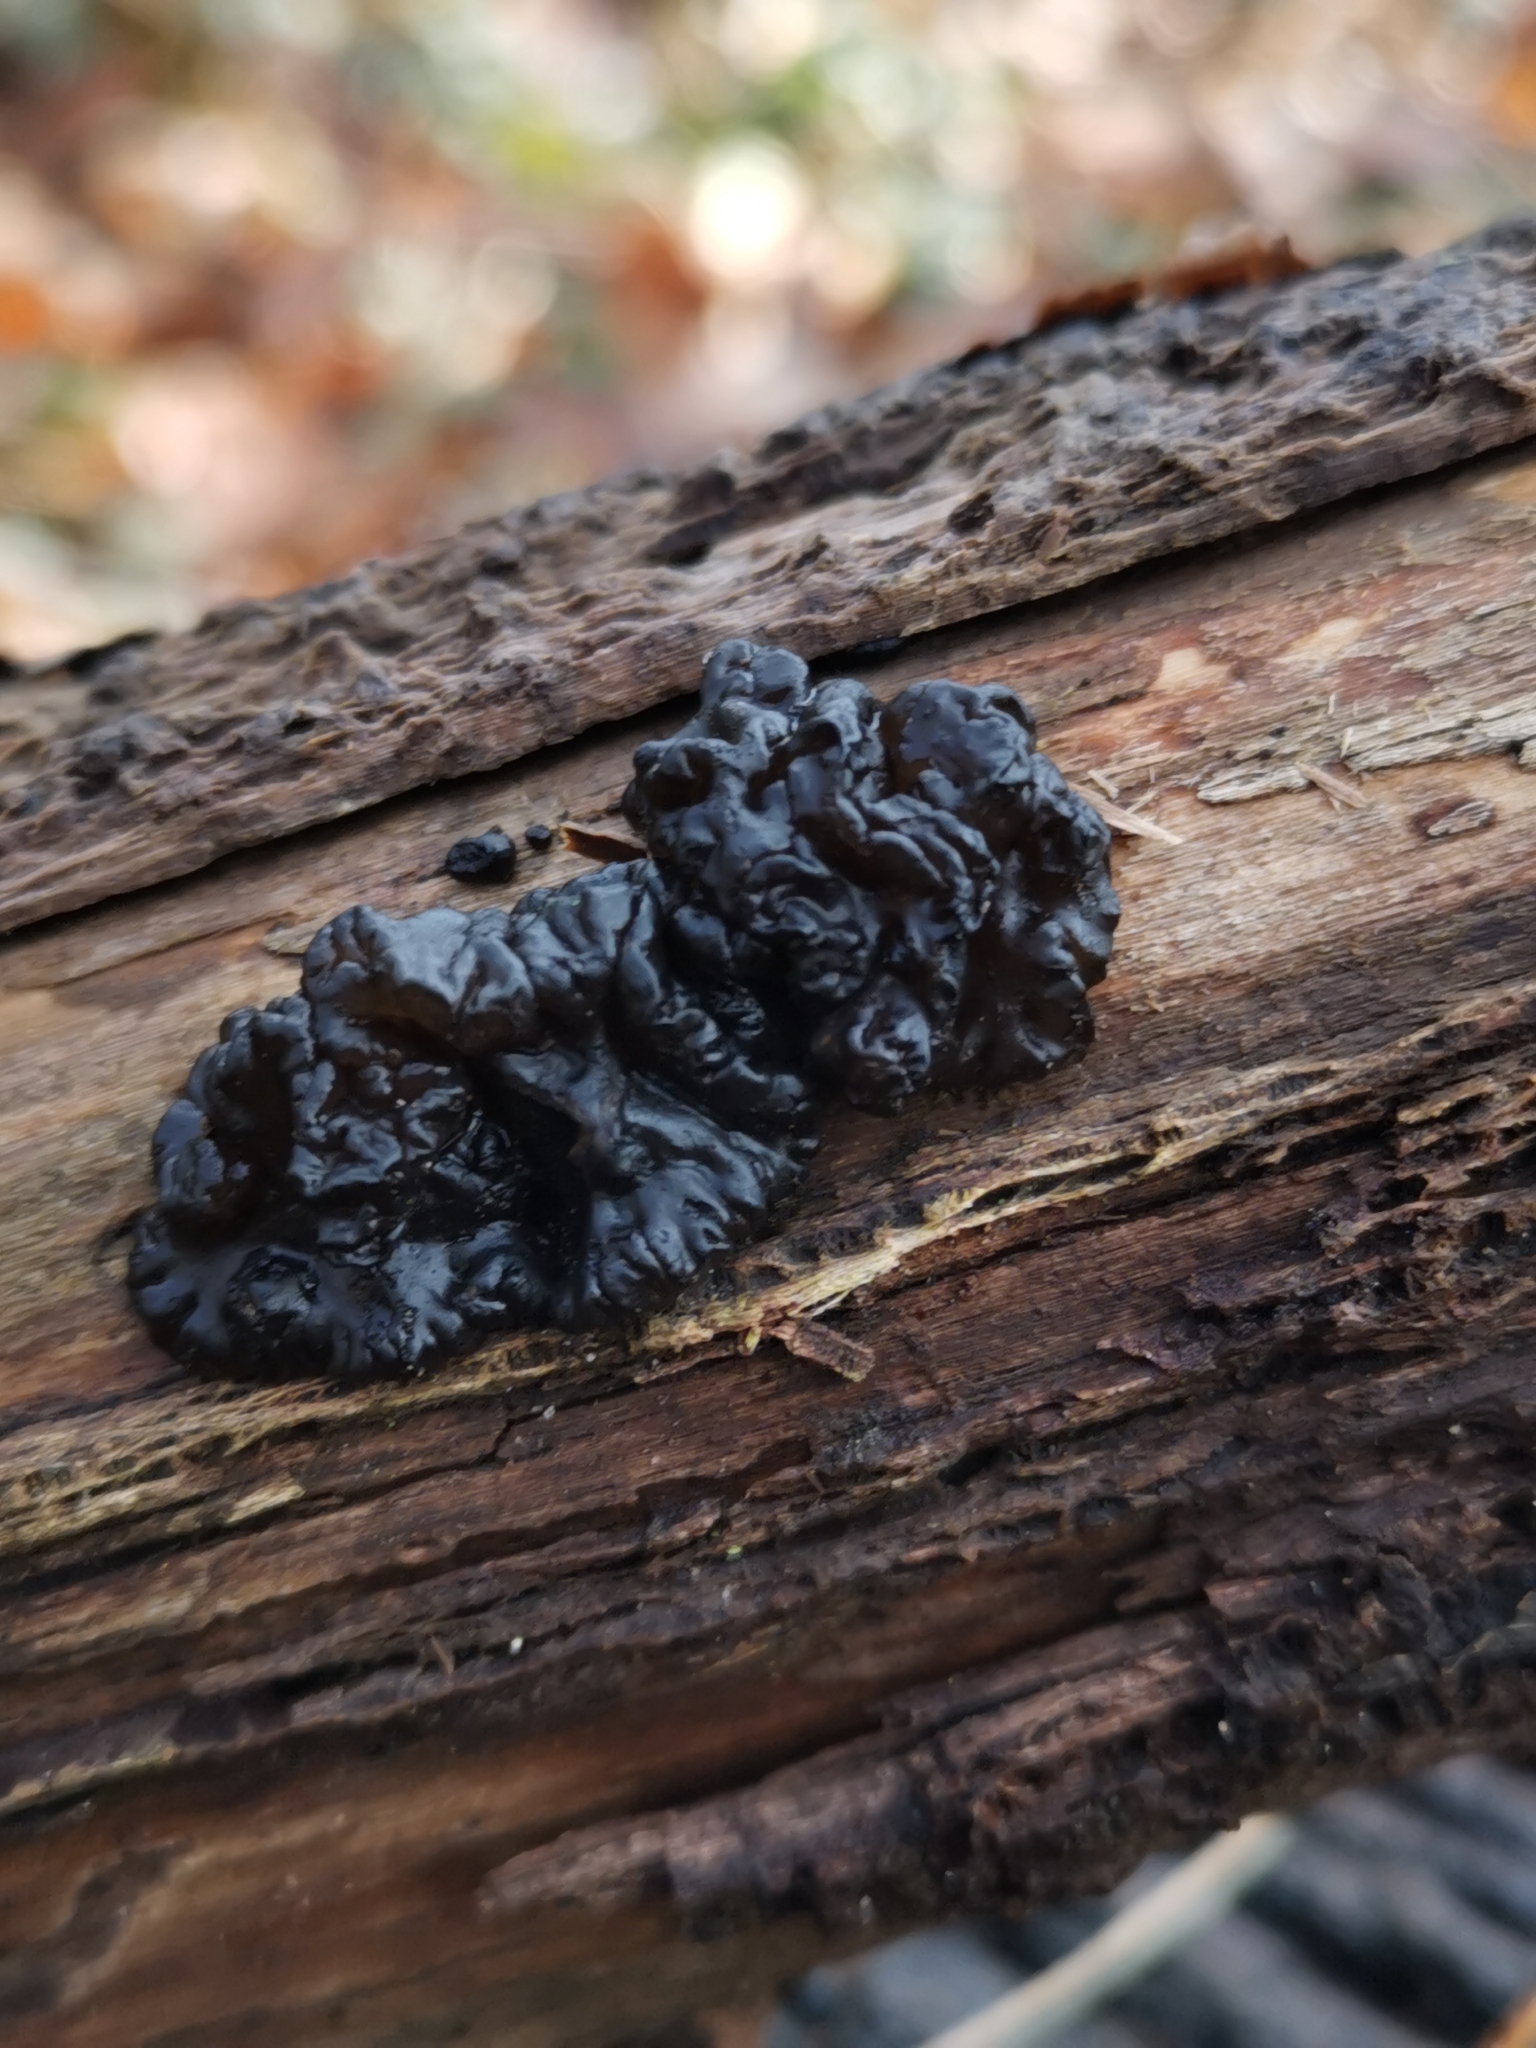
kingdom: Fungi
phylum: Basidiomycota
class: Agaricomycetes
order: Auriculariales
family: Auriculariaceae
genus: Exidia
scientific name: Exidia glandulosa
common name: Witches' butter
